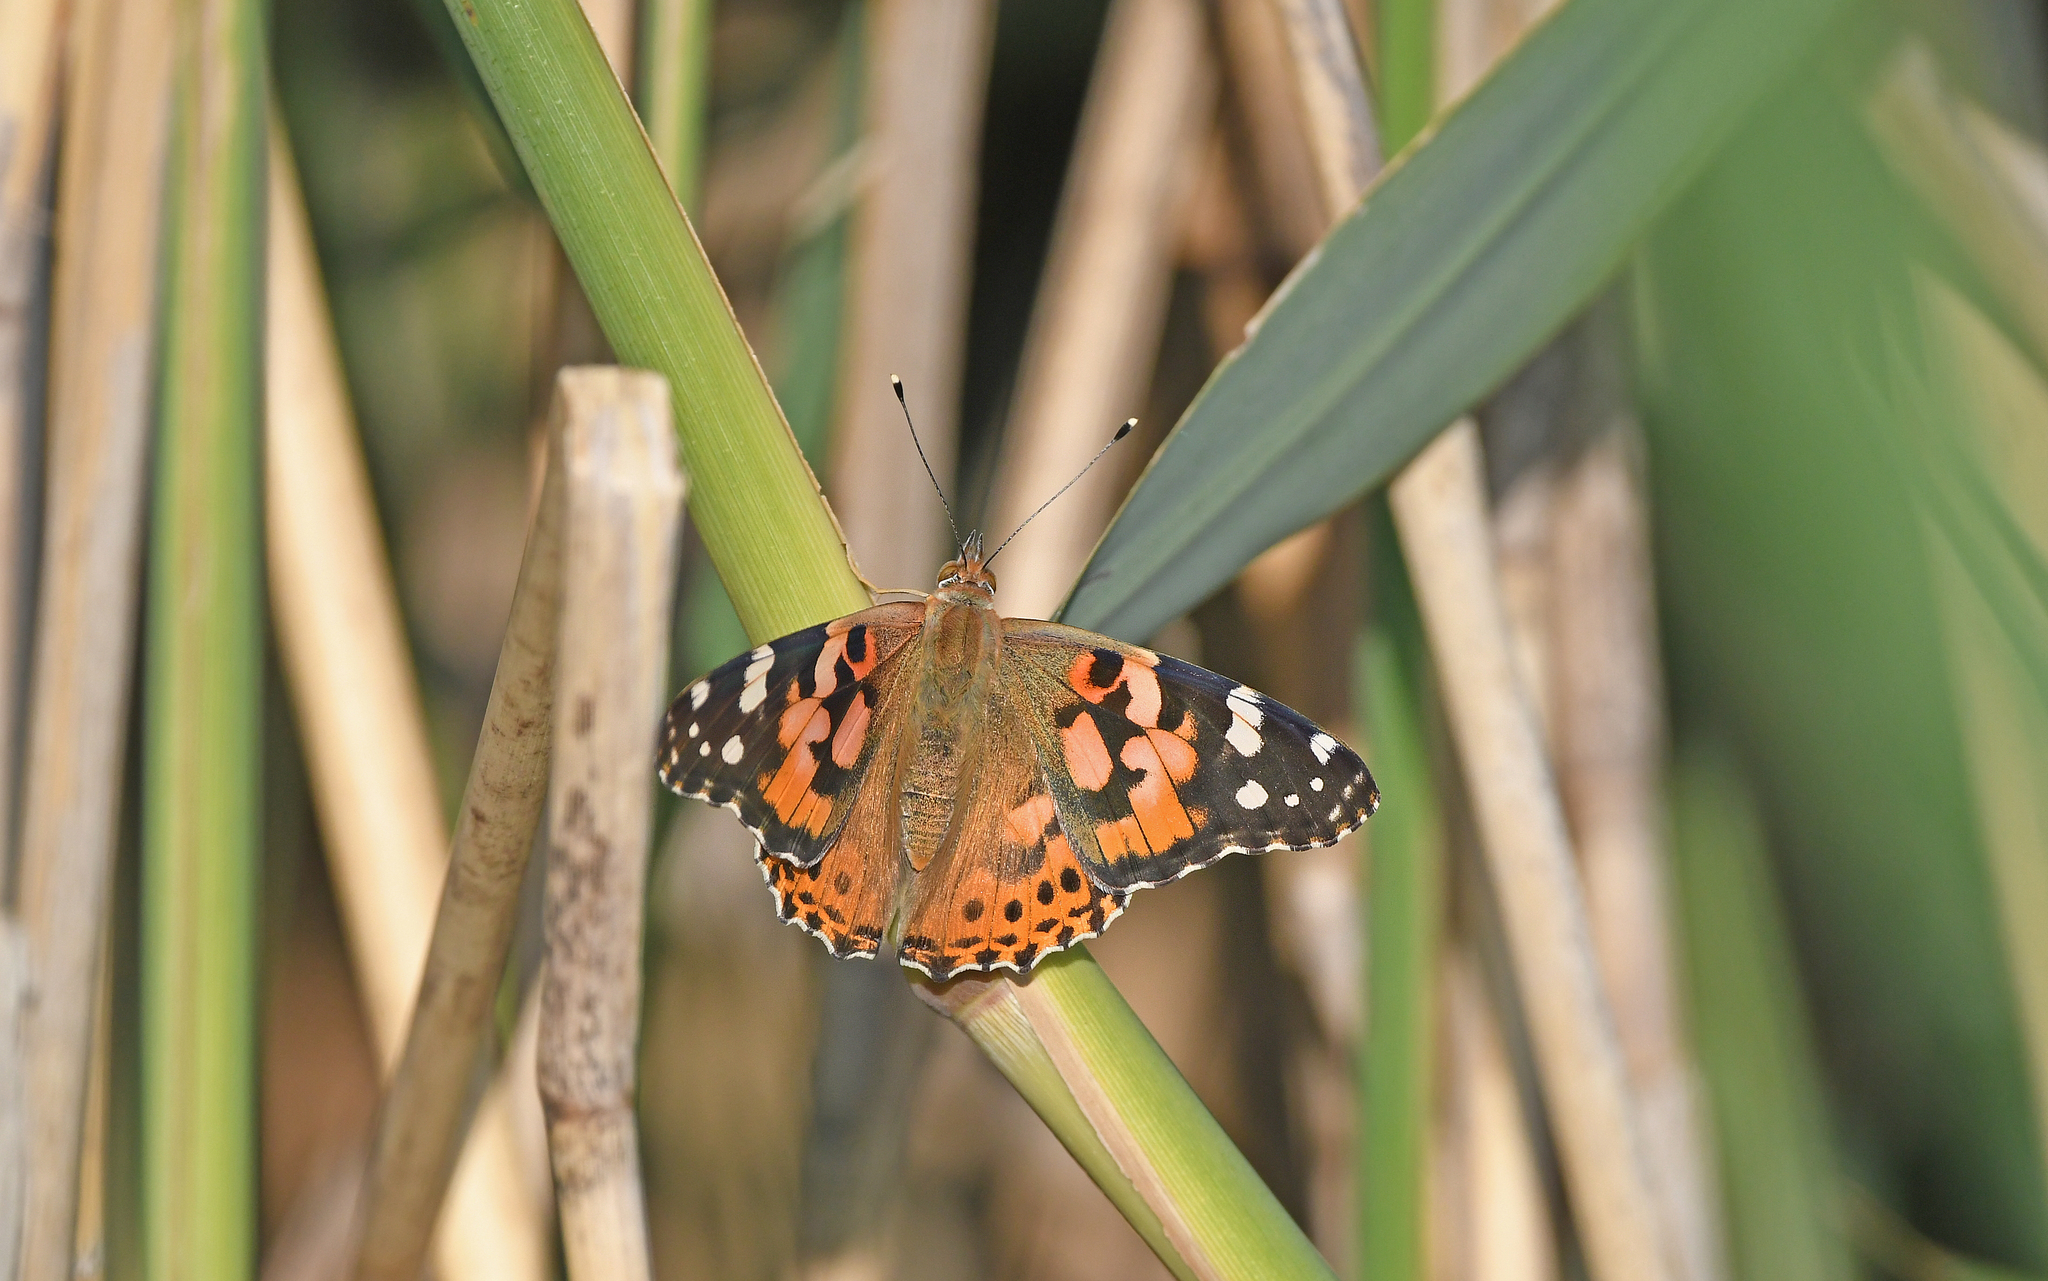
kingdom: Animalia
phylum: Arthropoda
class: Insecta
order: Lepidoptera
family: Nymphalidae
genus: Vanessa
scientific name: Vanessa cardui
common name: Painted lady
